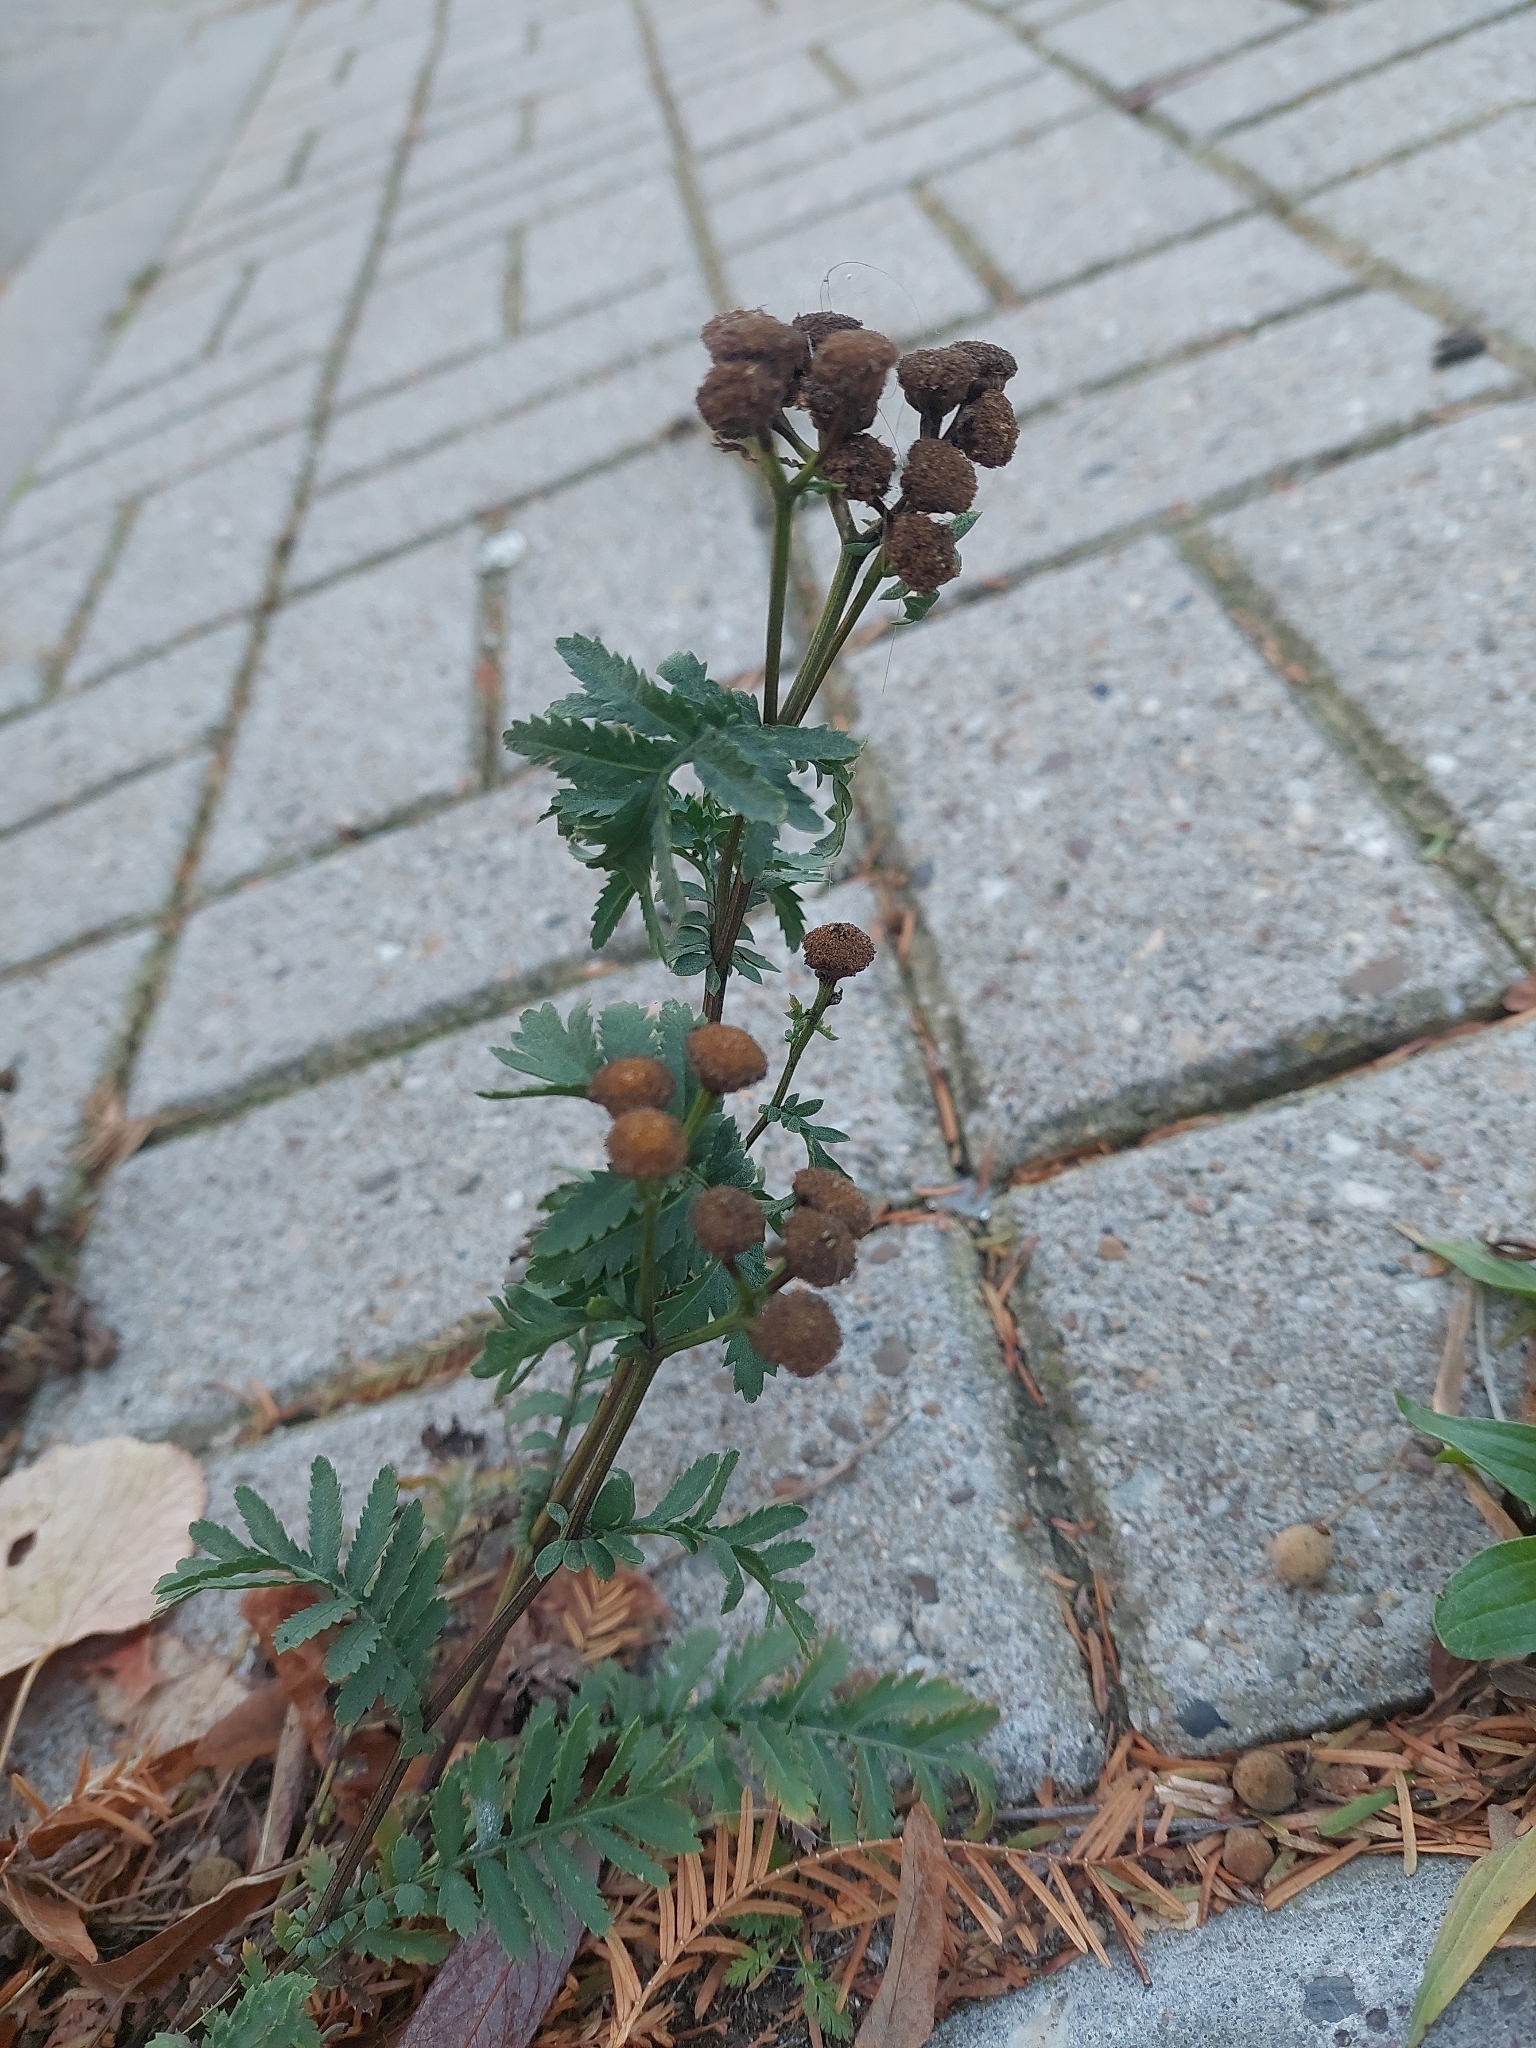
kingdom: Plantae
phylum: Tracheophyta
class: Magnoliopsida
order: Asterales
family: Asteraceae
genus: Tanacetum
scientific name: Tanacetum vulgare
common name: Common tansy
